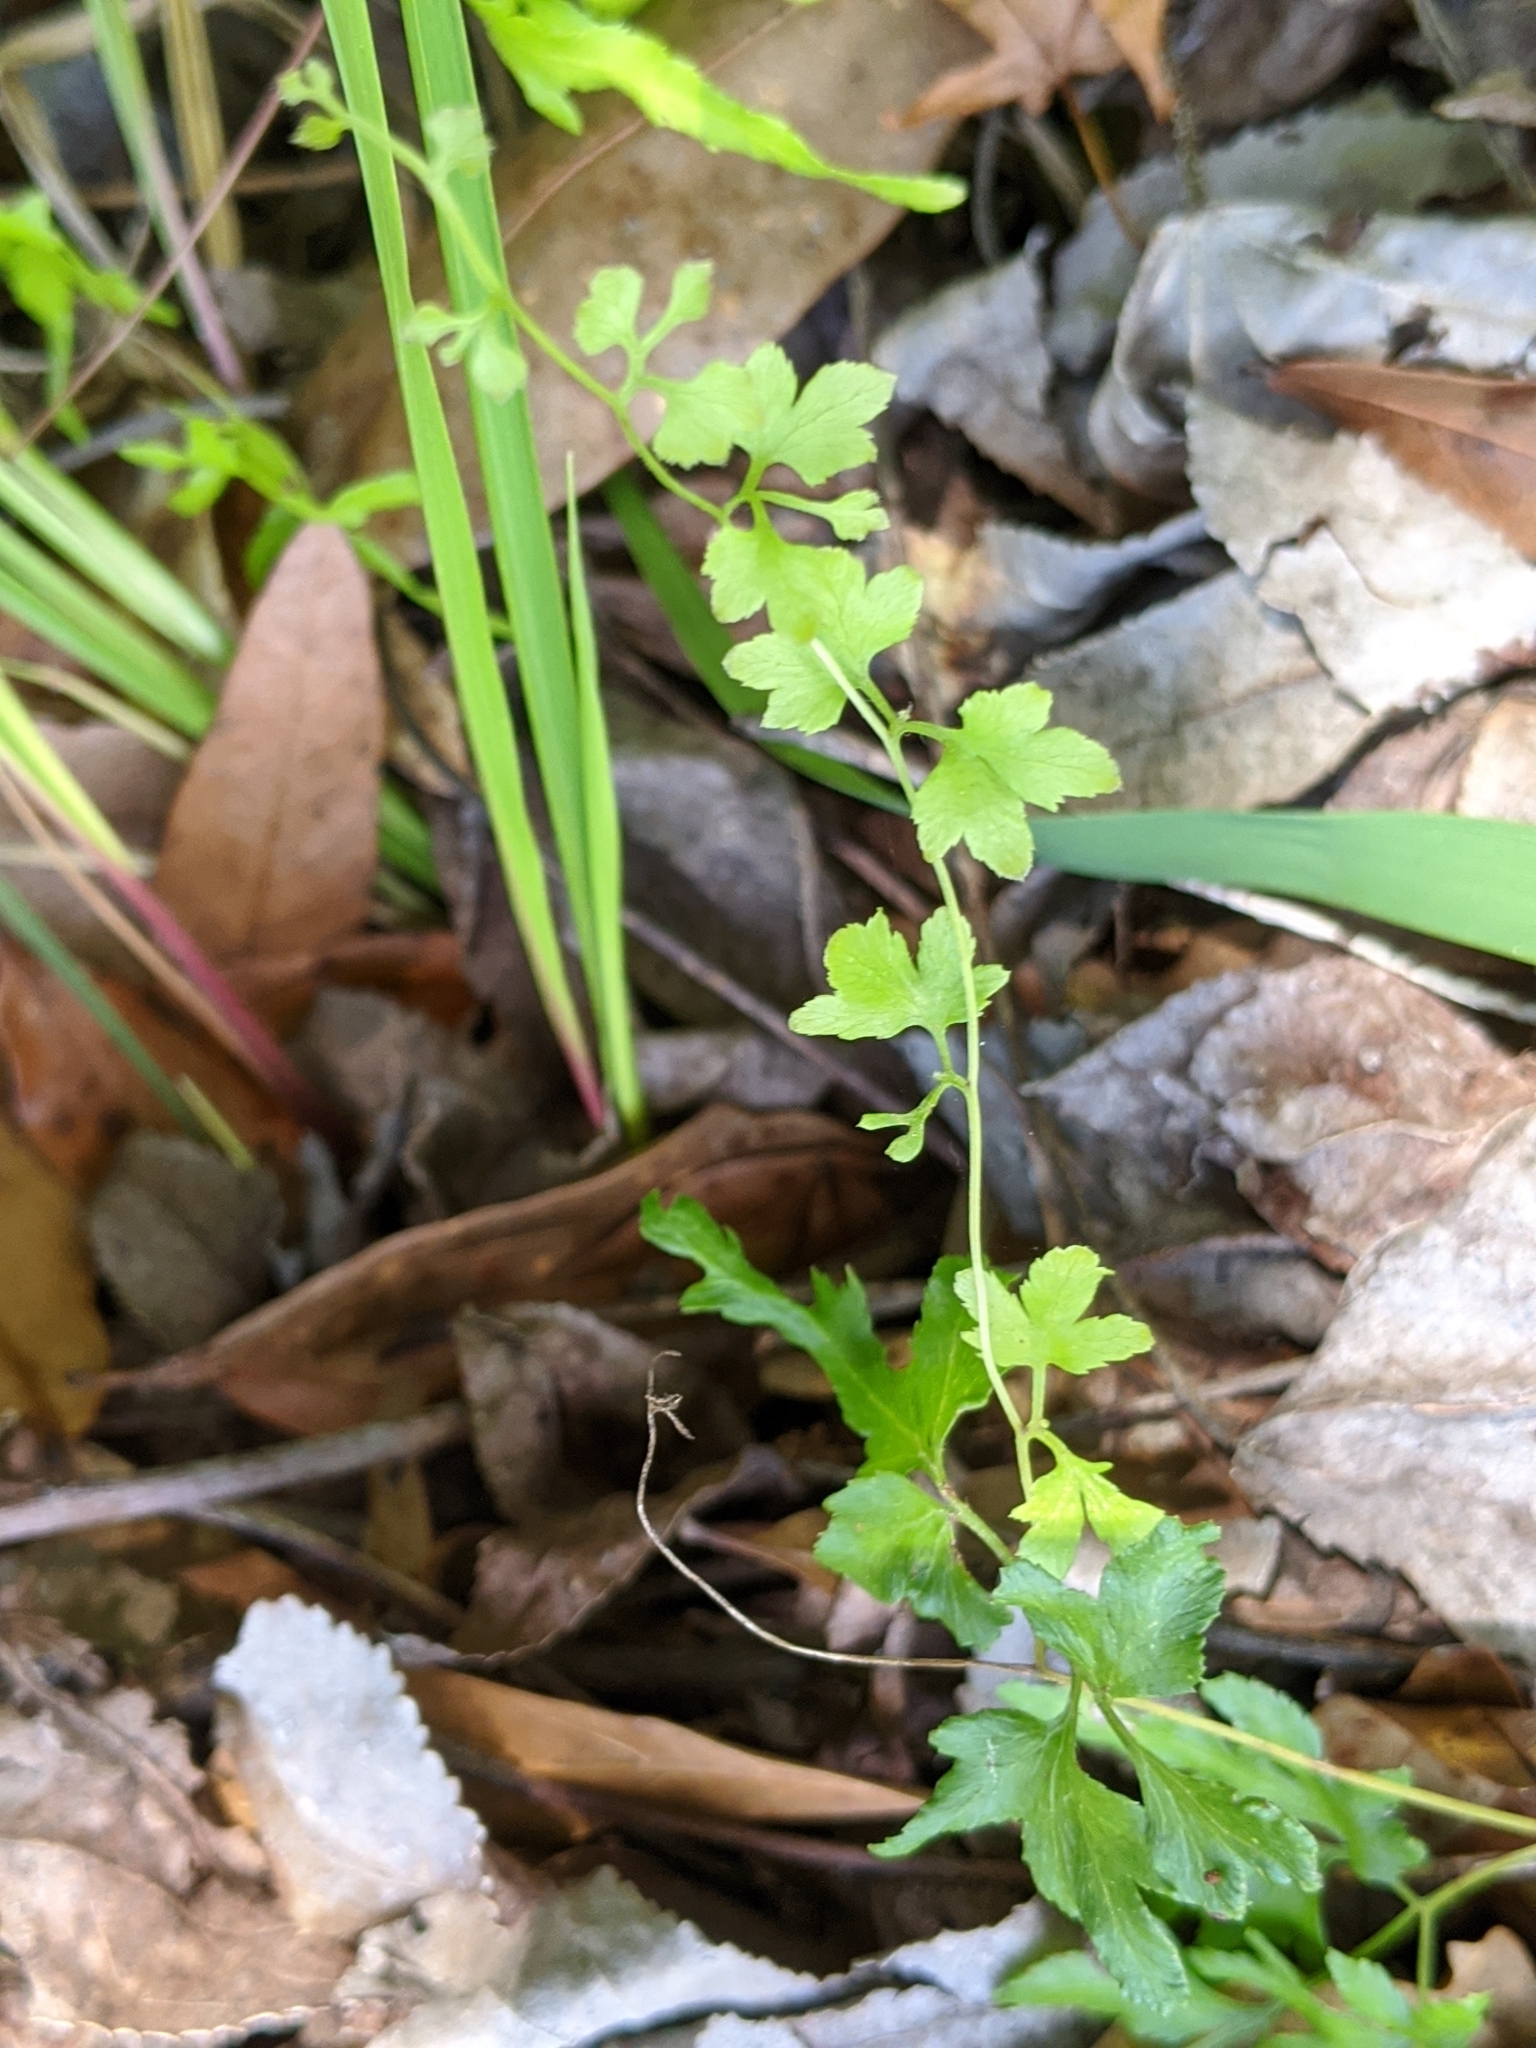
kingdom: Plantae
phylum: Tracheophyta
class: Polypodiopsida
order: Schizaeales
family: Lygodiaceae
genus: Lygodium
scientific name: Lygodium japonicum
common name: Japanese climbing fern
